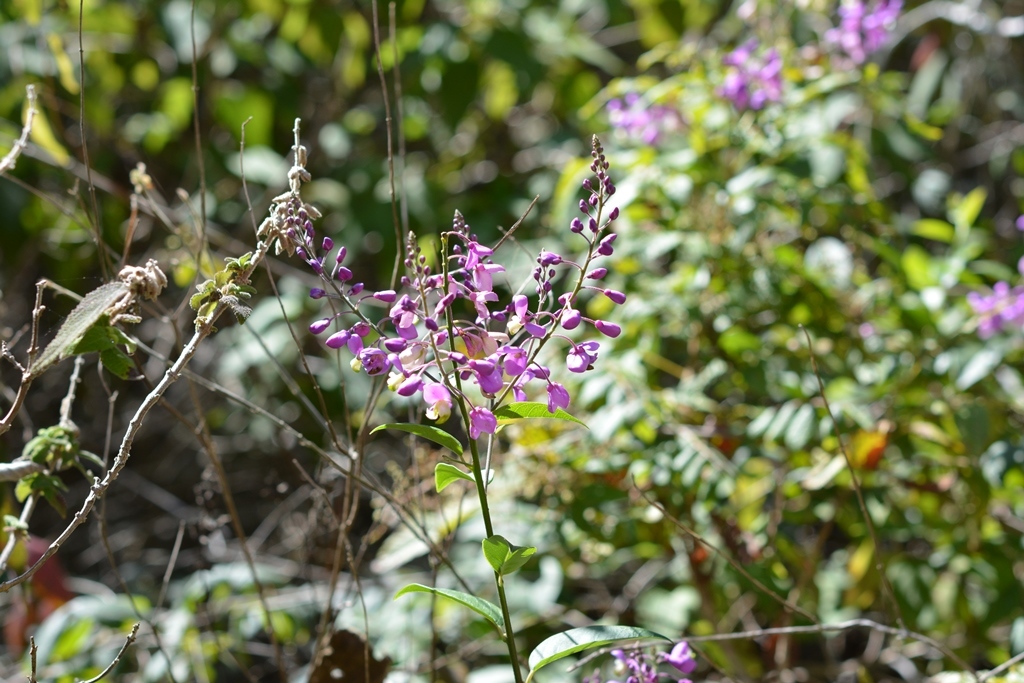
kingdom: Plantae
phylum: Tracheophyta
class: Magnoliopsida
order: Fabales
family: Polygalaceae
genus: Asemeia
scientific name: Asemeia floribunda
